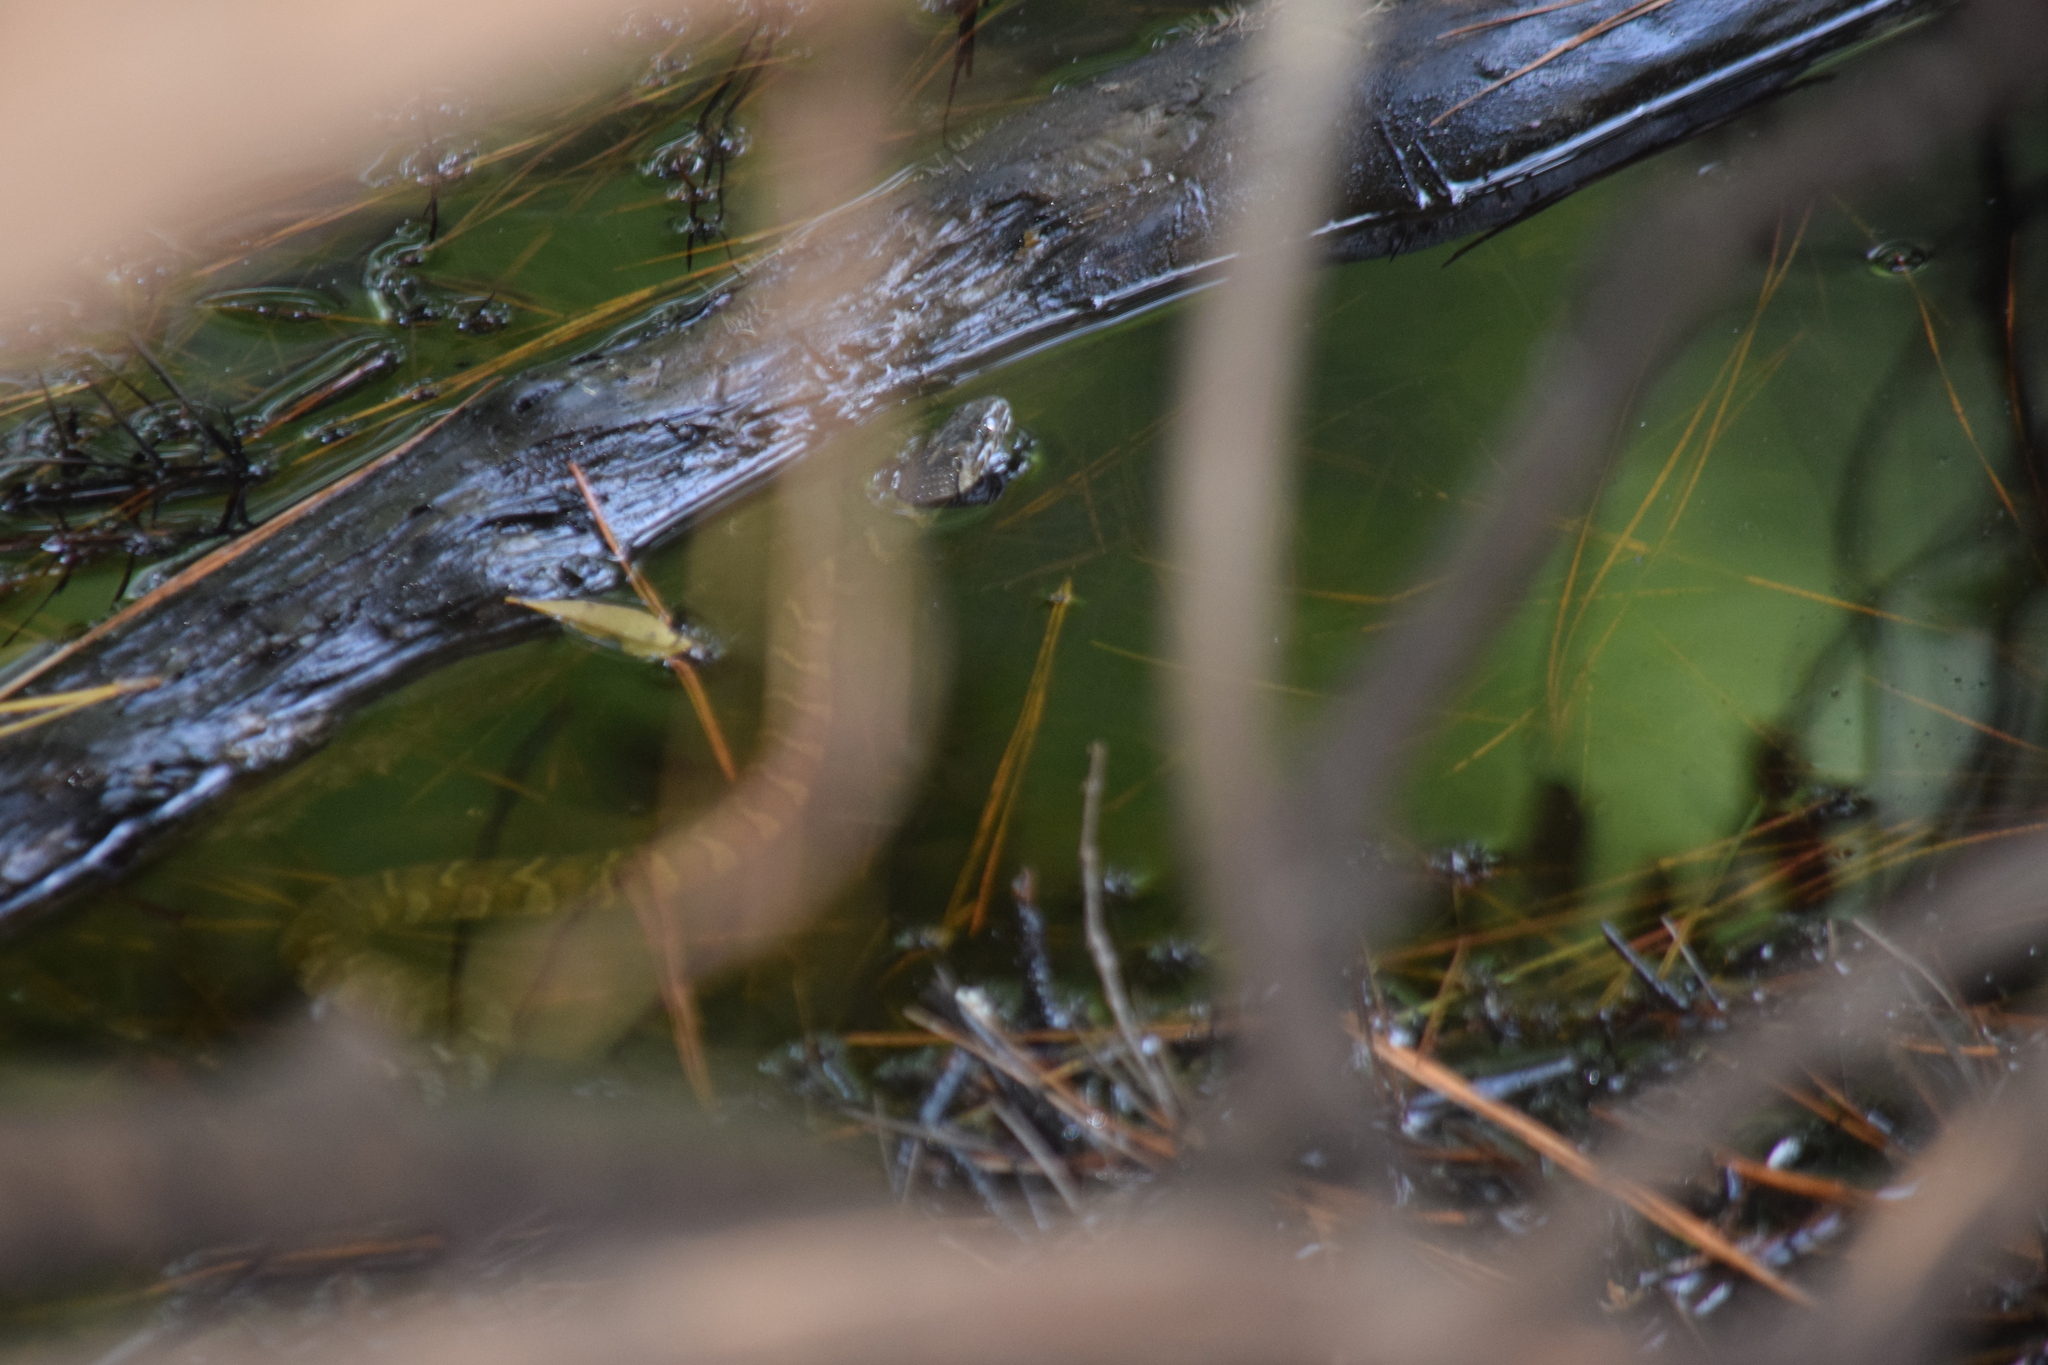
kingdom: Animalia
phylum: Chordata
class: Squamata
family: Colubridae
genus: Nerodia
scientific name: Nerodia sipedon
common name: Northern water snake
